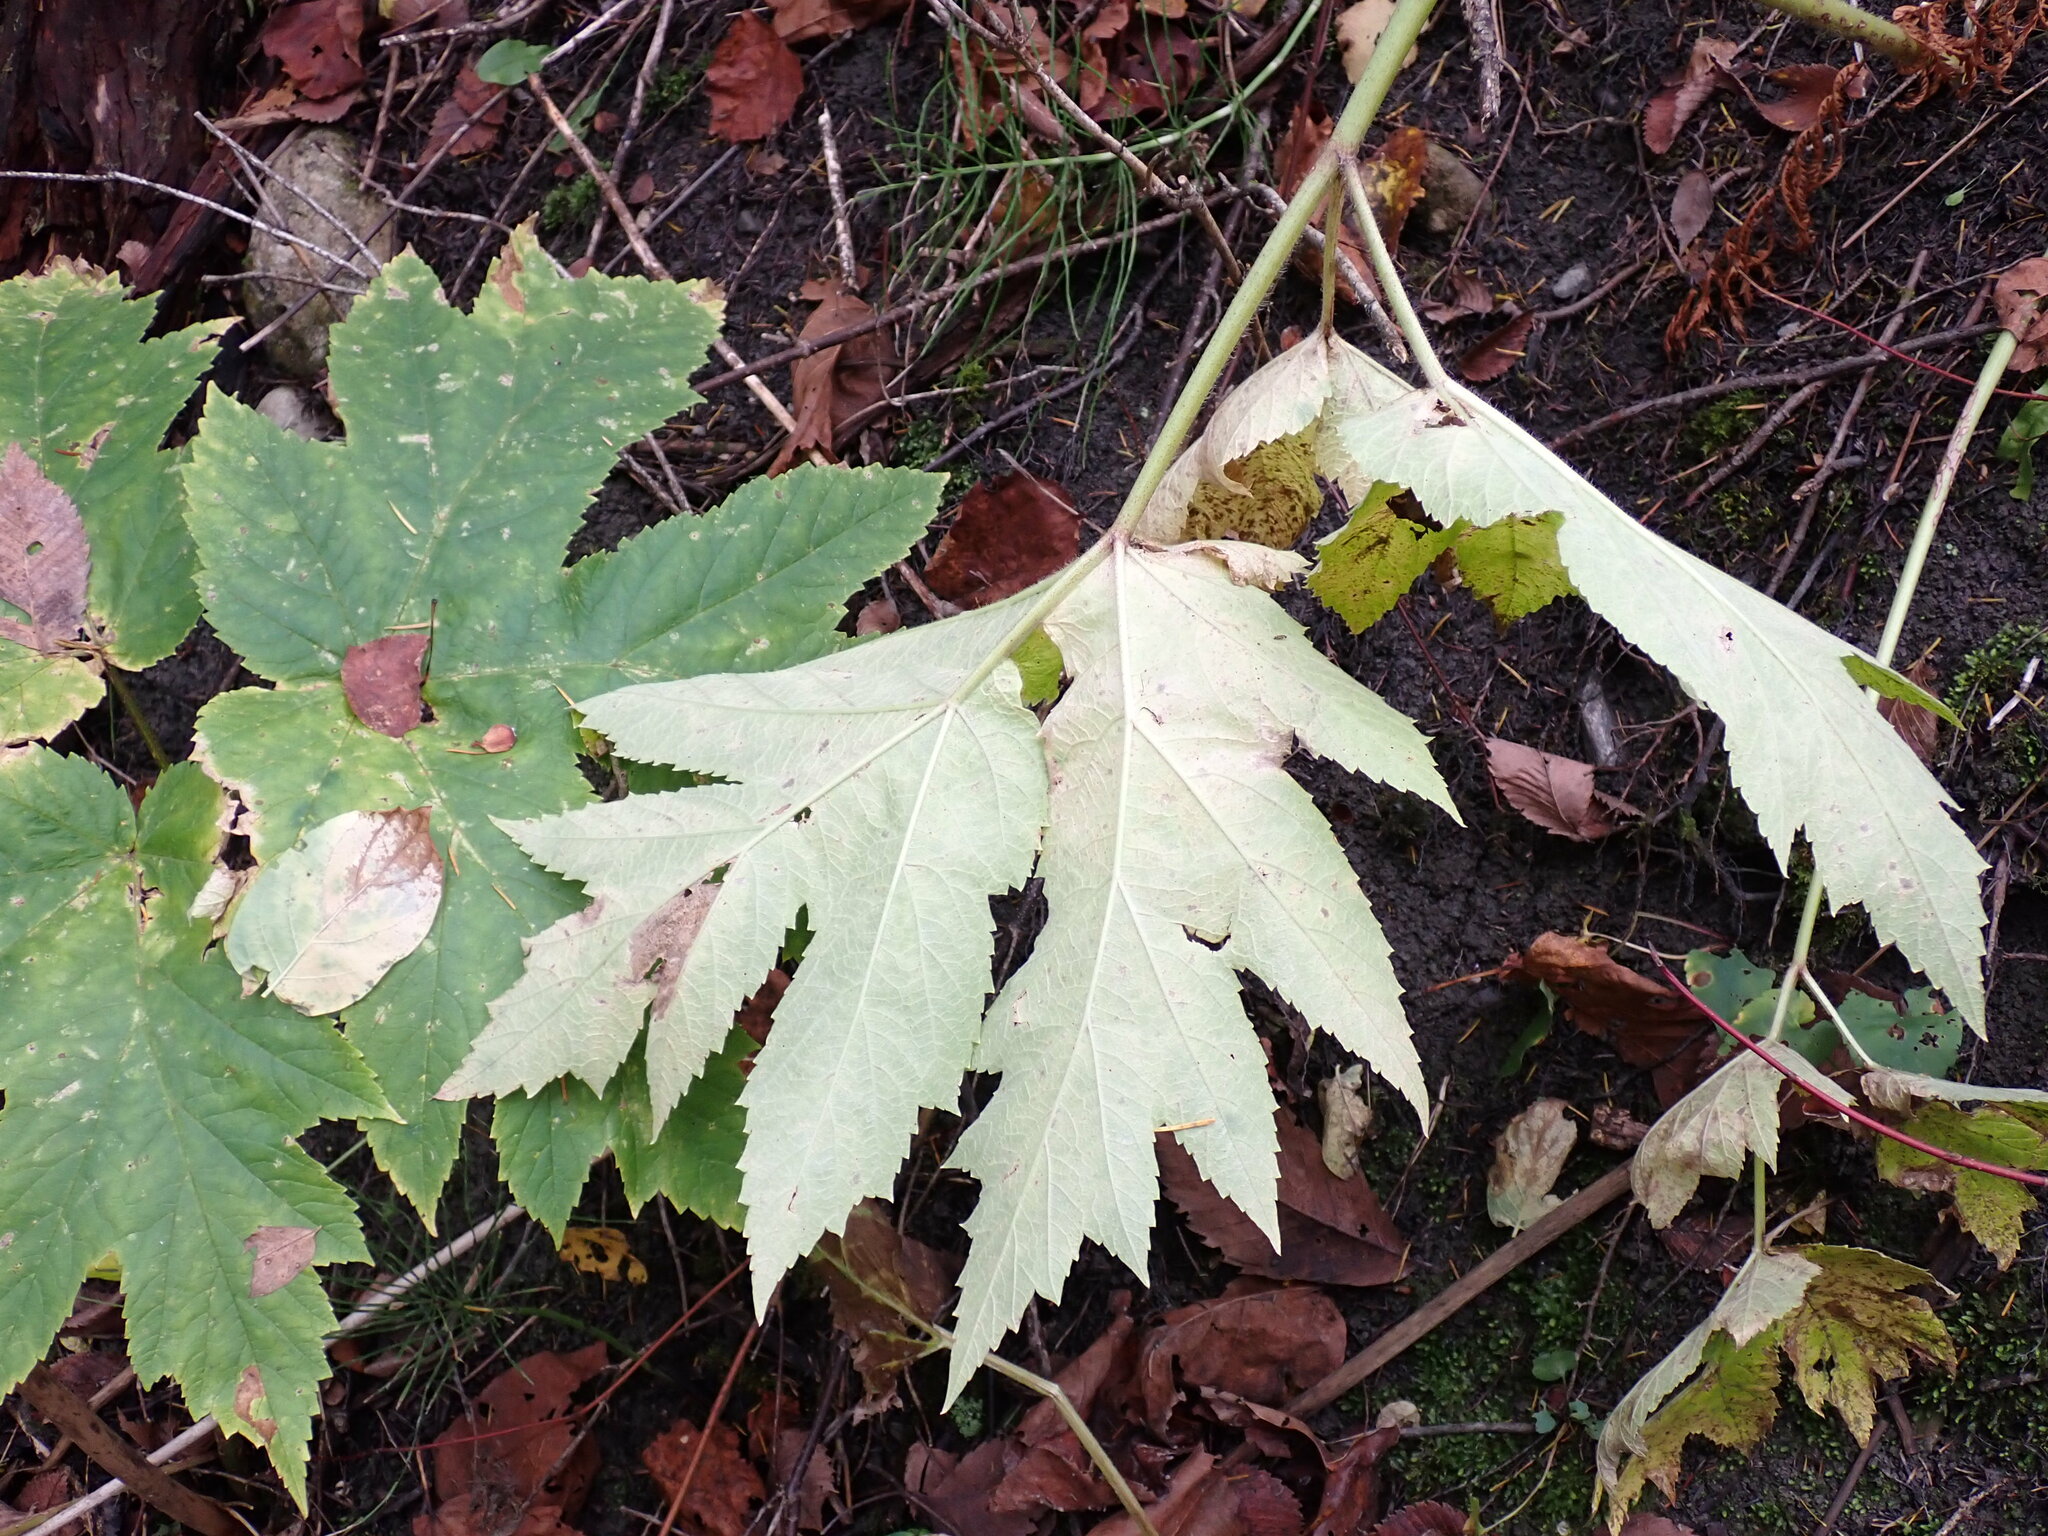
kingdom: Plantae
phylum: Tracheophyta
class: Magnoliopsida
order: Apiales
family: Apiaceae
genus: Heracleum
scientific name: Heracleum maximum
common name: American cow parsnip
